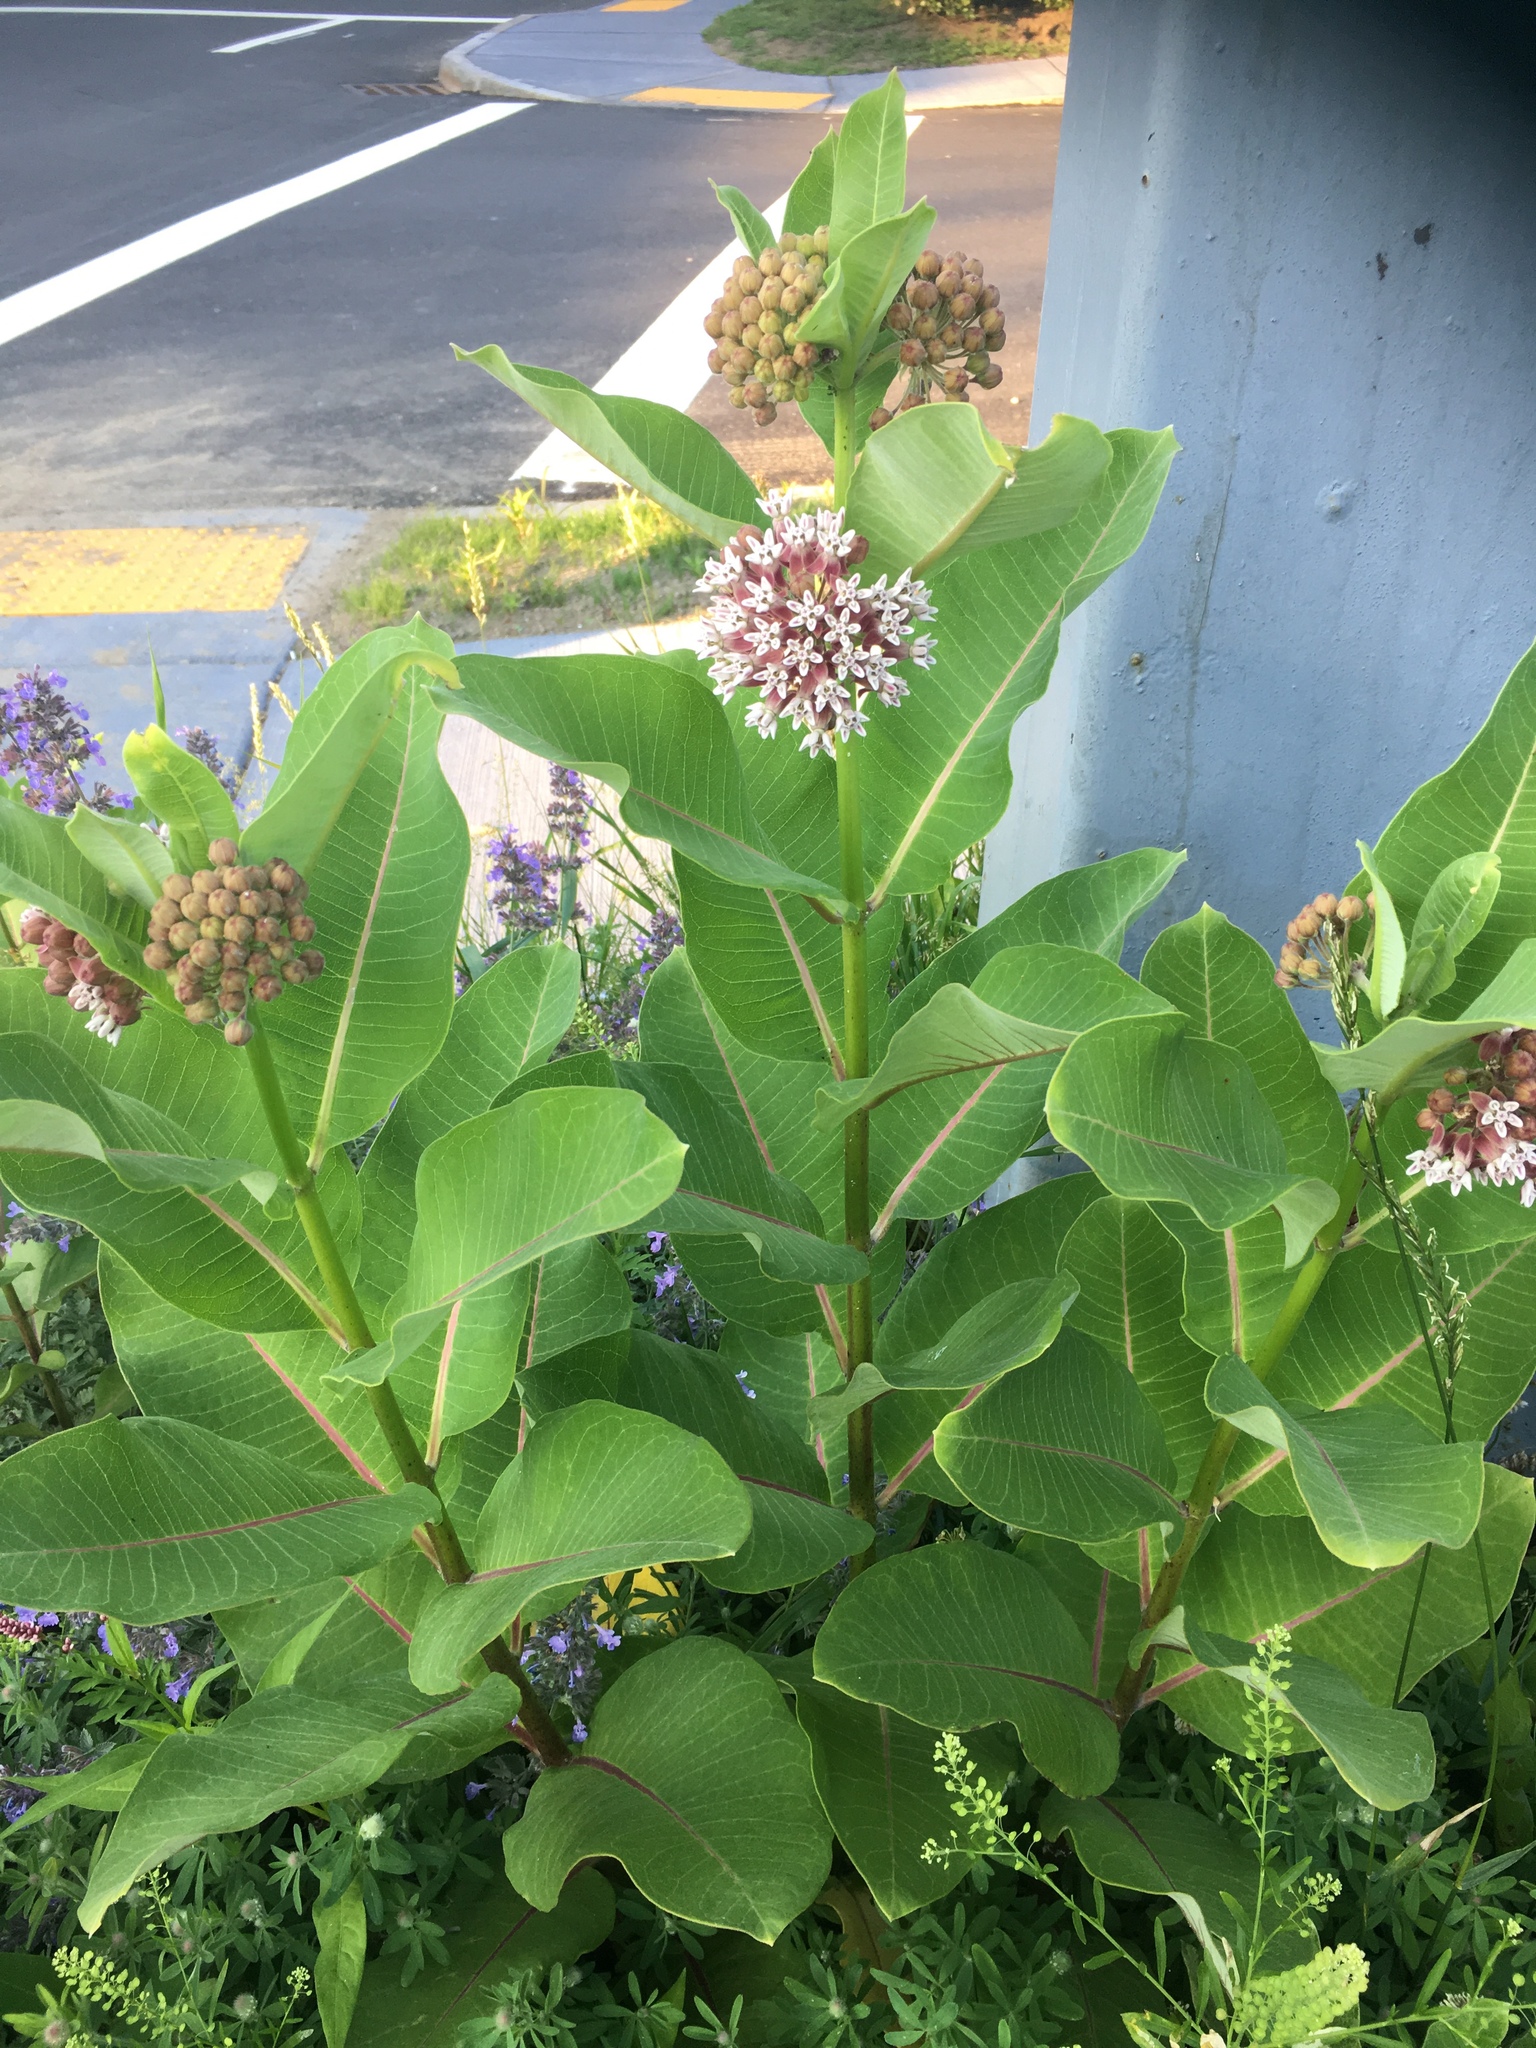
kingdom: Plantae
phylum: Tracheophyta
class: Magnoliopsida
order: Gentianales
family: Apocynaceae
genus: Asclepias
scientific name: Asclepias syriaca
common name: Common milkweed
